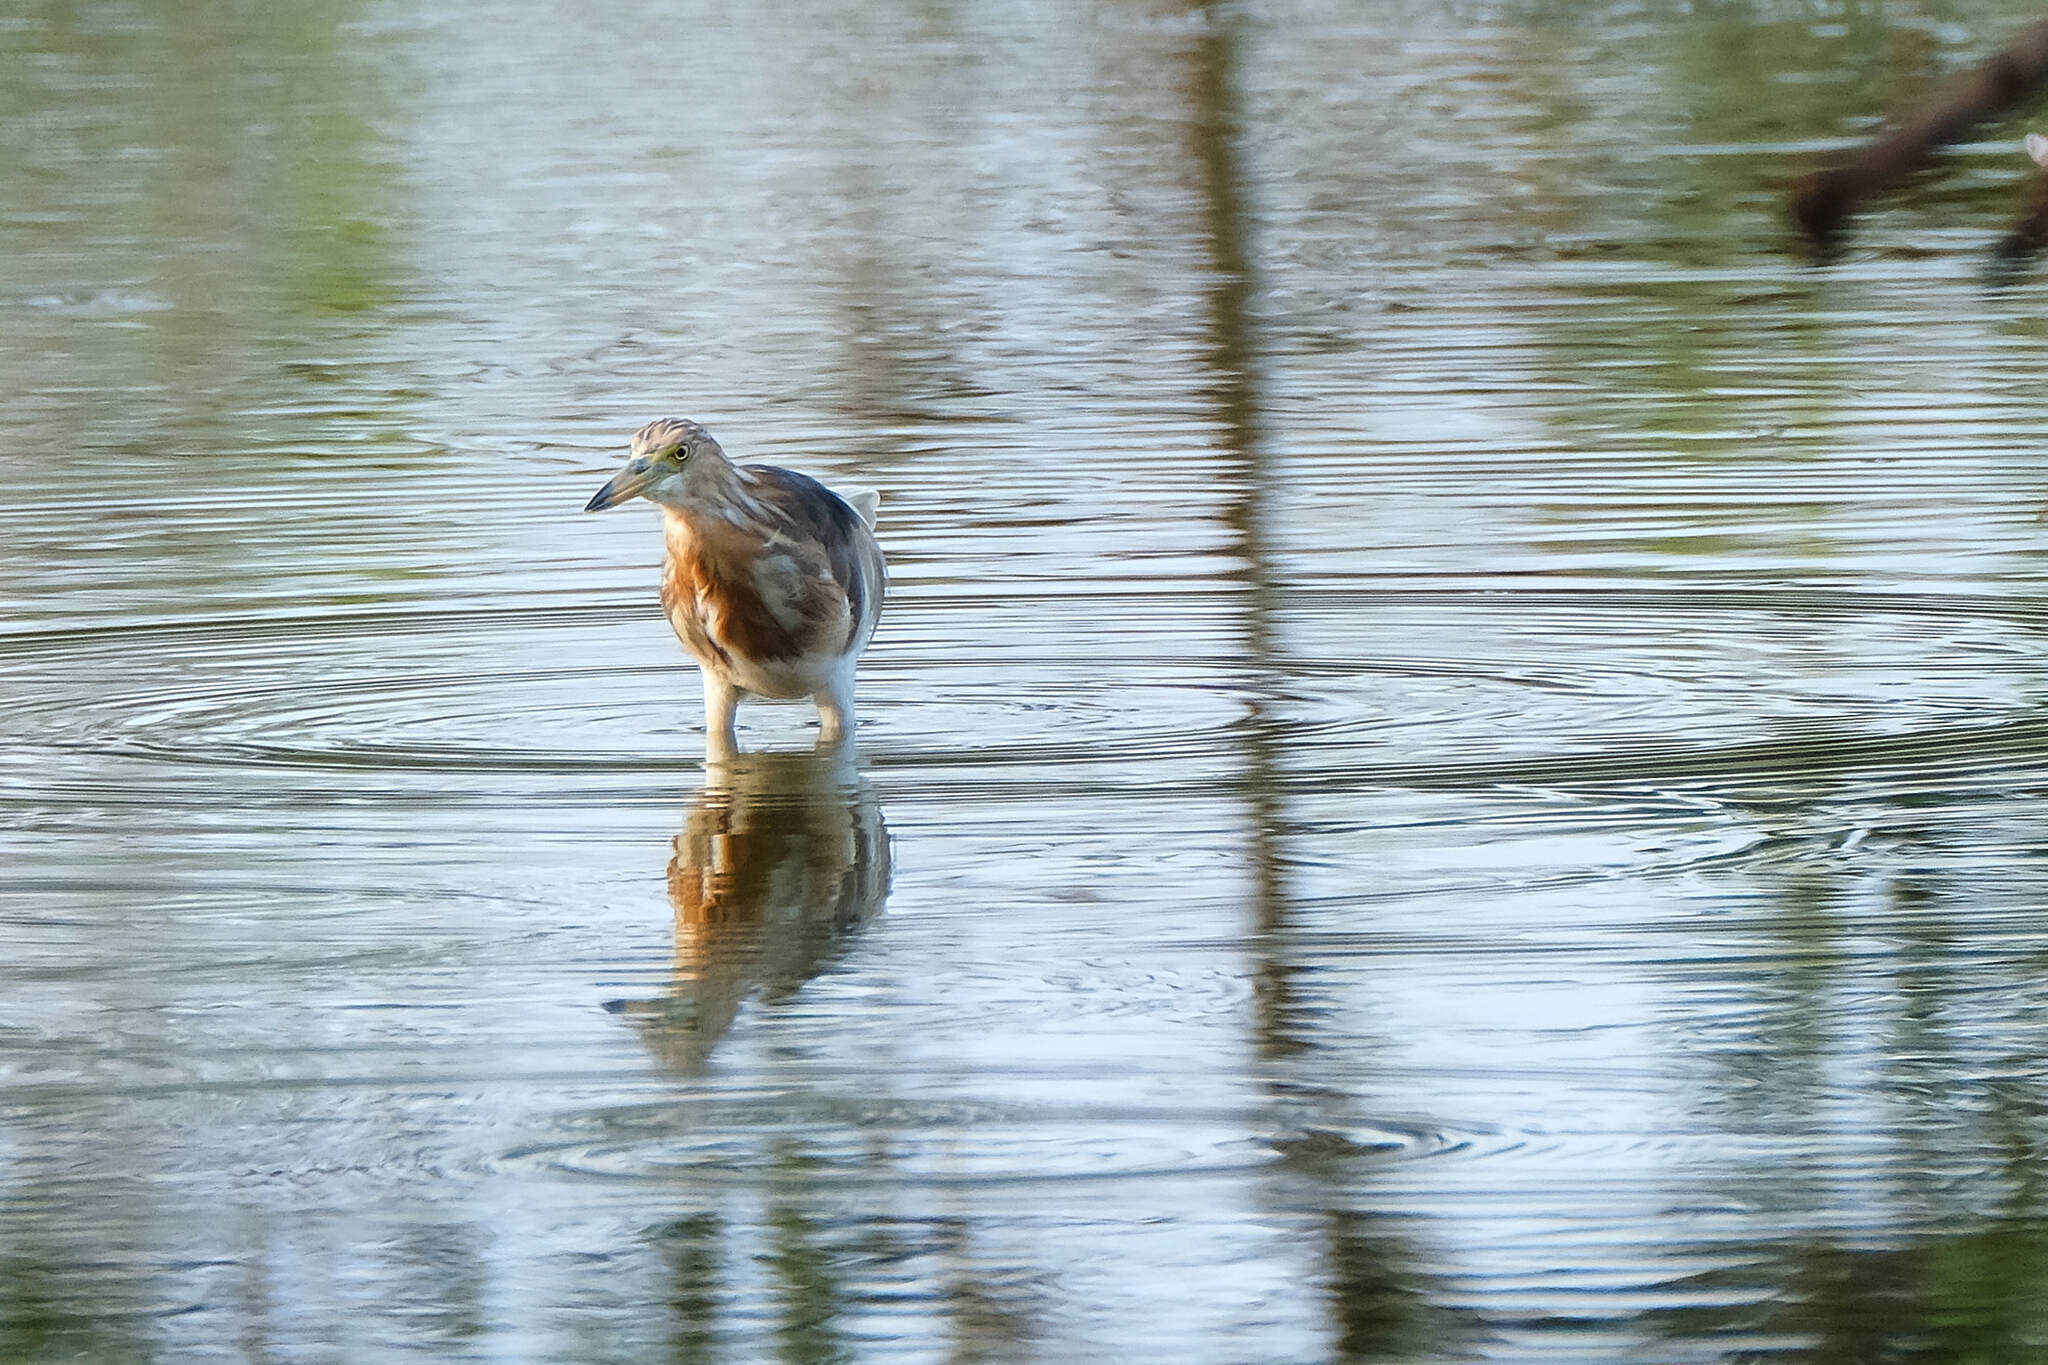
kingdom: Animalia
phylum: Chordata
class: Aves
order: Pelecaniformes
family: Ardeidae
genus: Ardeola
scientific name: Ardeola speciosa
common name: Javan pond heron
